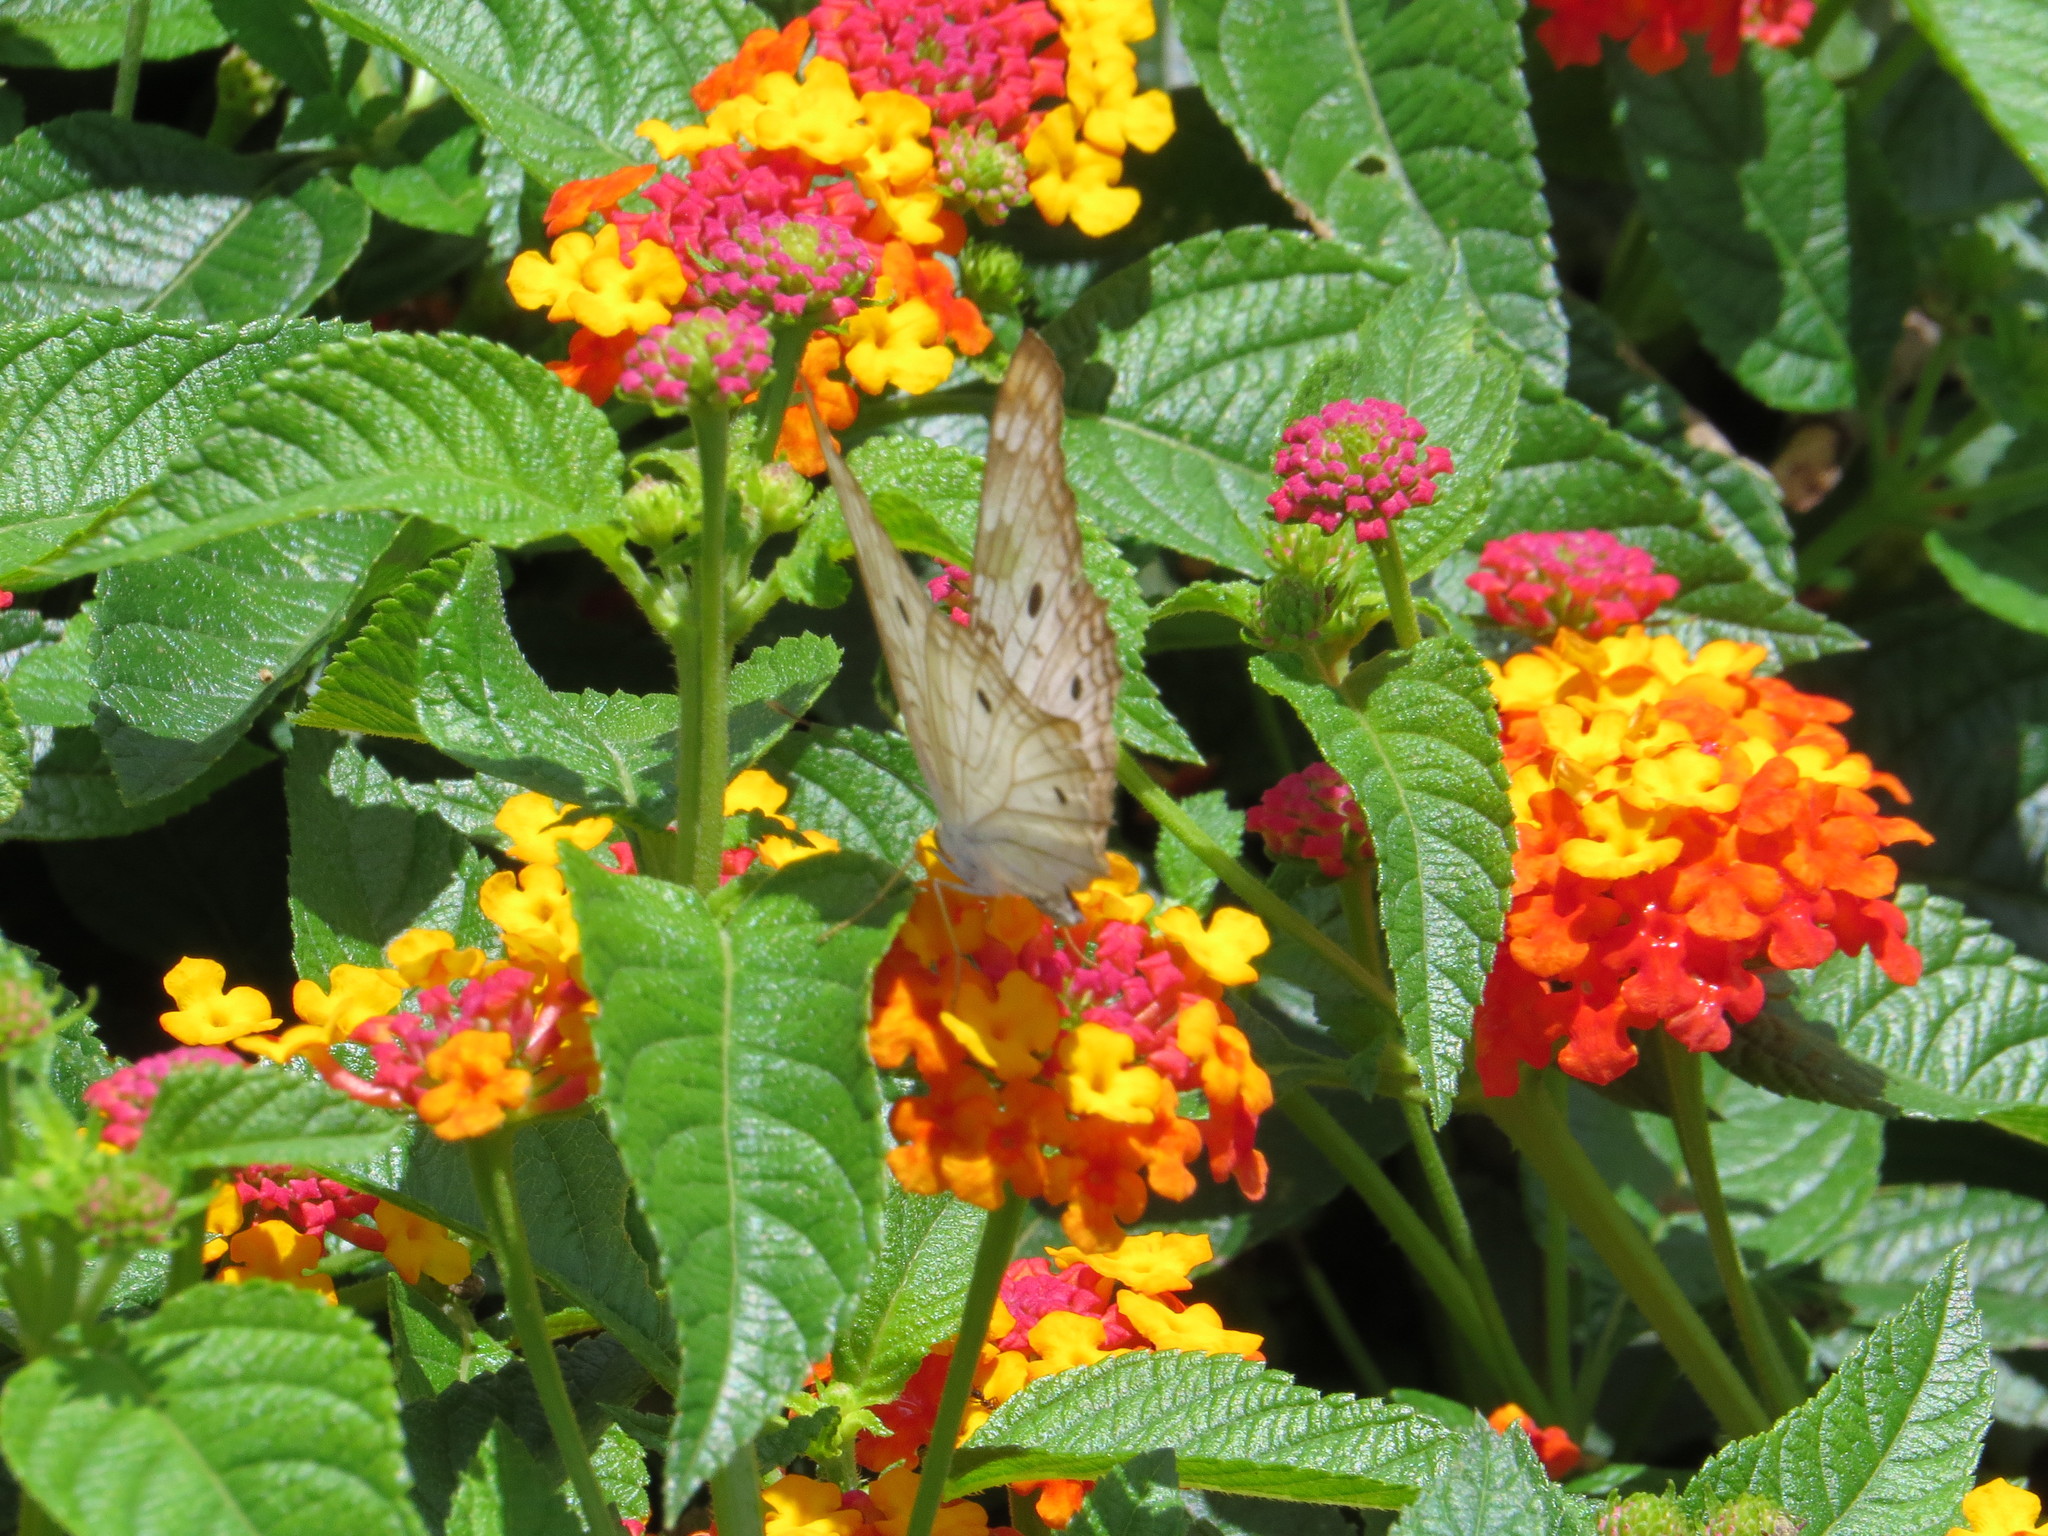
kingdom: Animalia
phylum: Arthropoda
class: Insecta
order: Lepidoptera
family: Nymphalidae
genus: Anartia
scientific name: Anartia jatrophae
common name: White peacock
